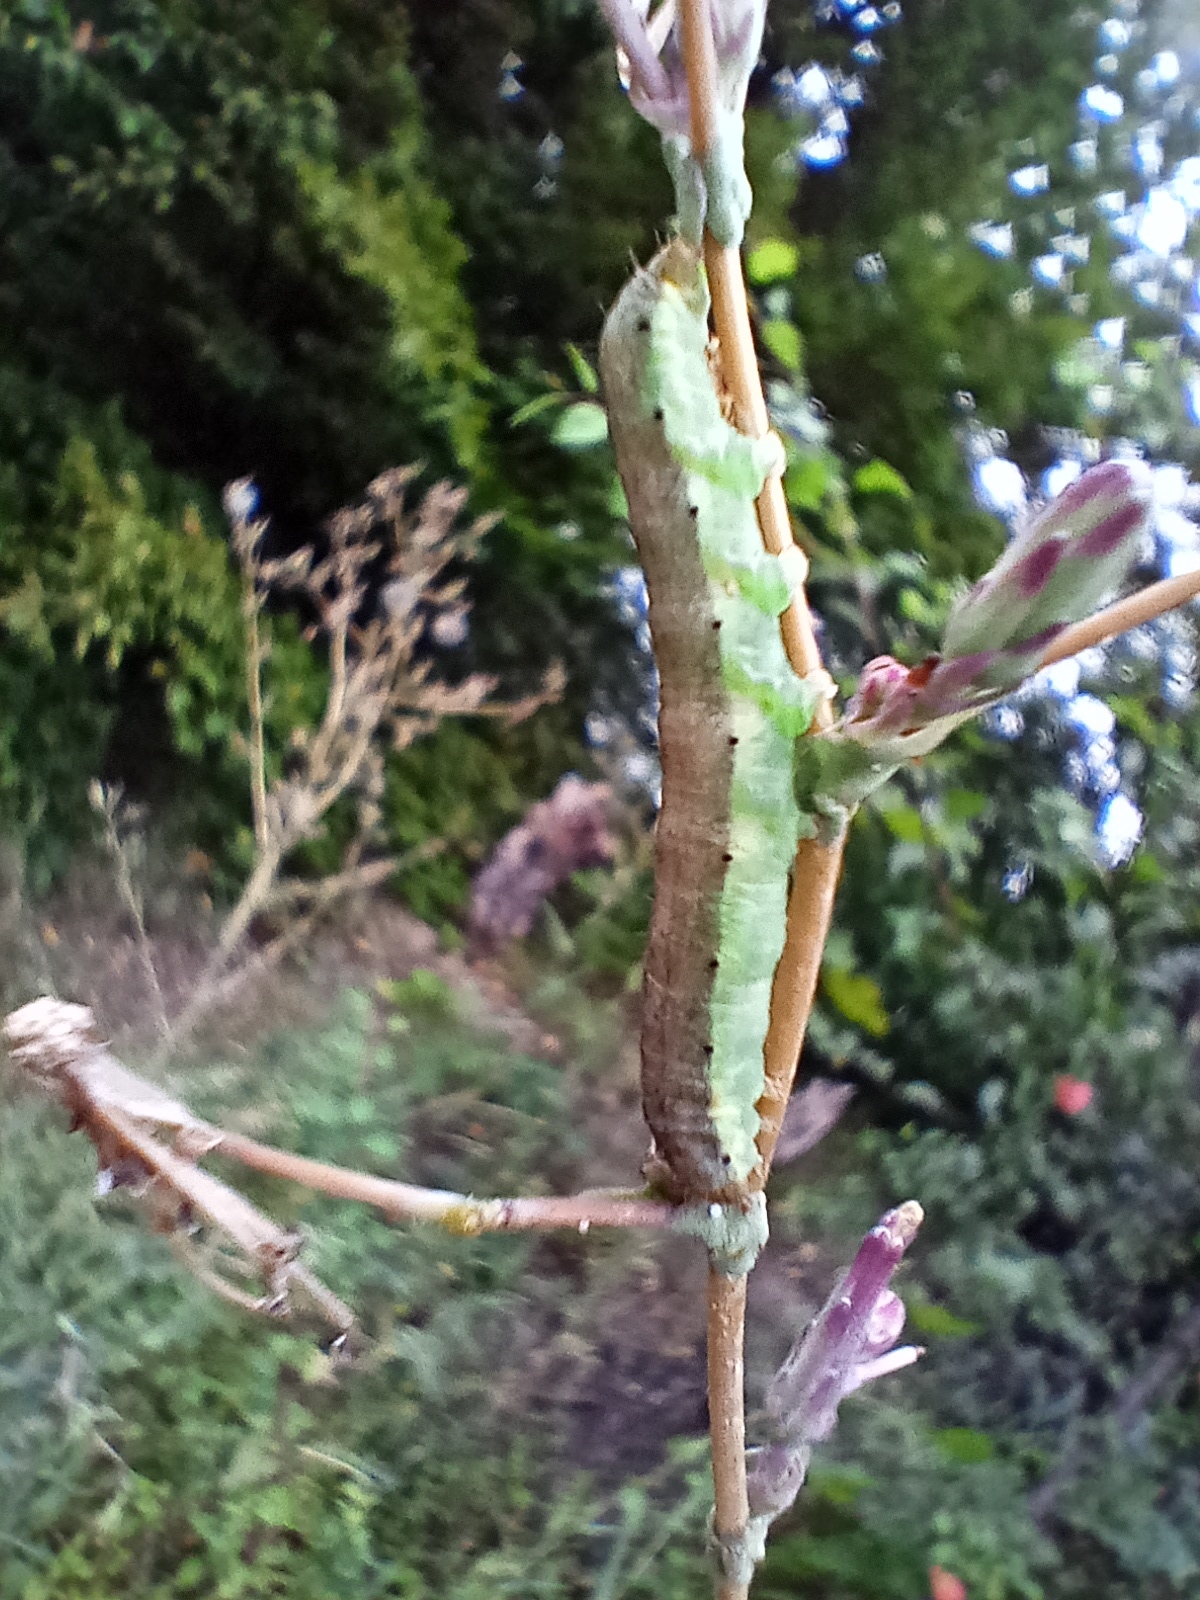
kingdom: Animalia
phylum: Arthropoda
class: Insecta
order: Lepidoptera
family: Noctuidae
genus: Hecatera
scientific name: Hecatera dysodea
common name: Small ranunculus
